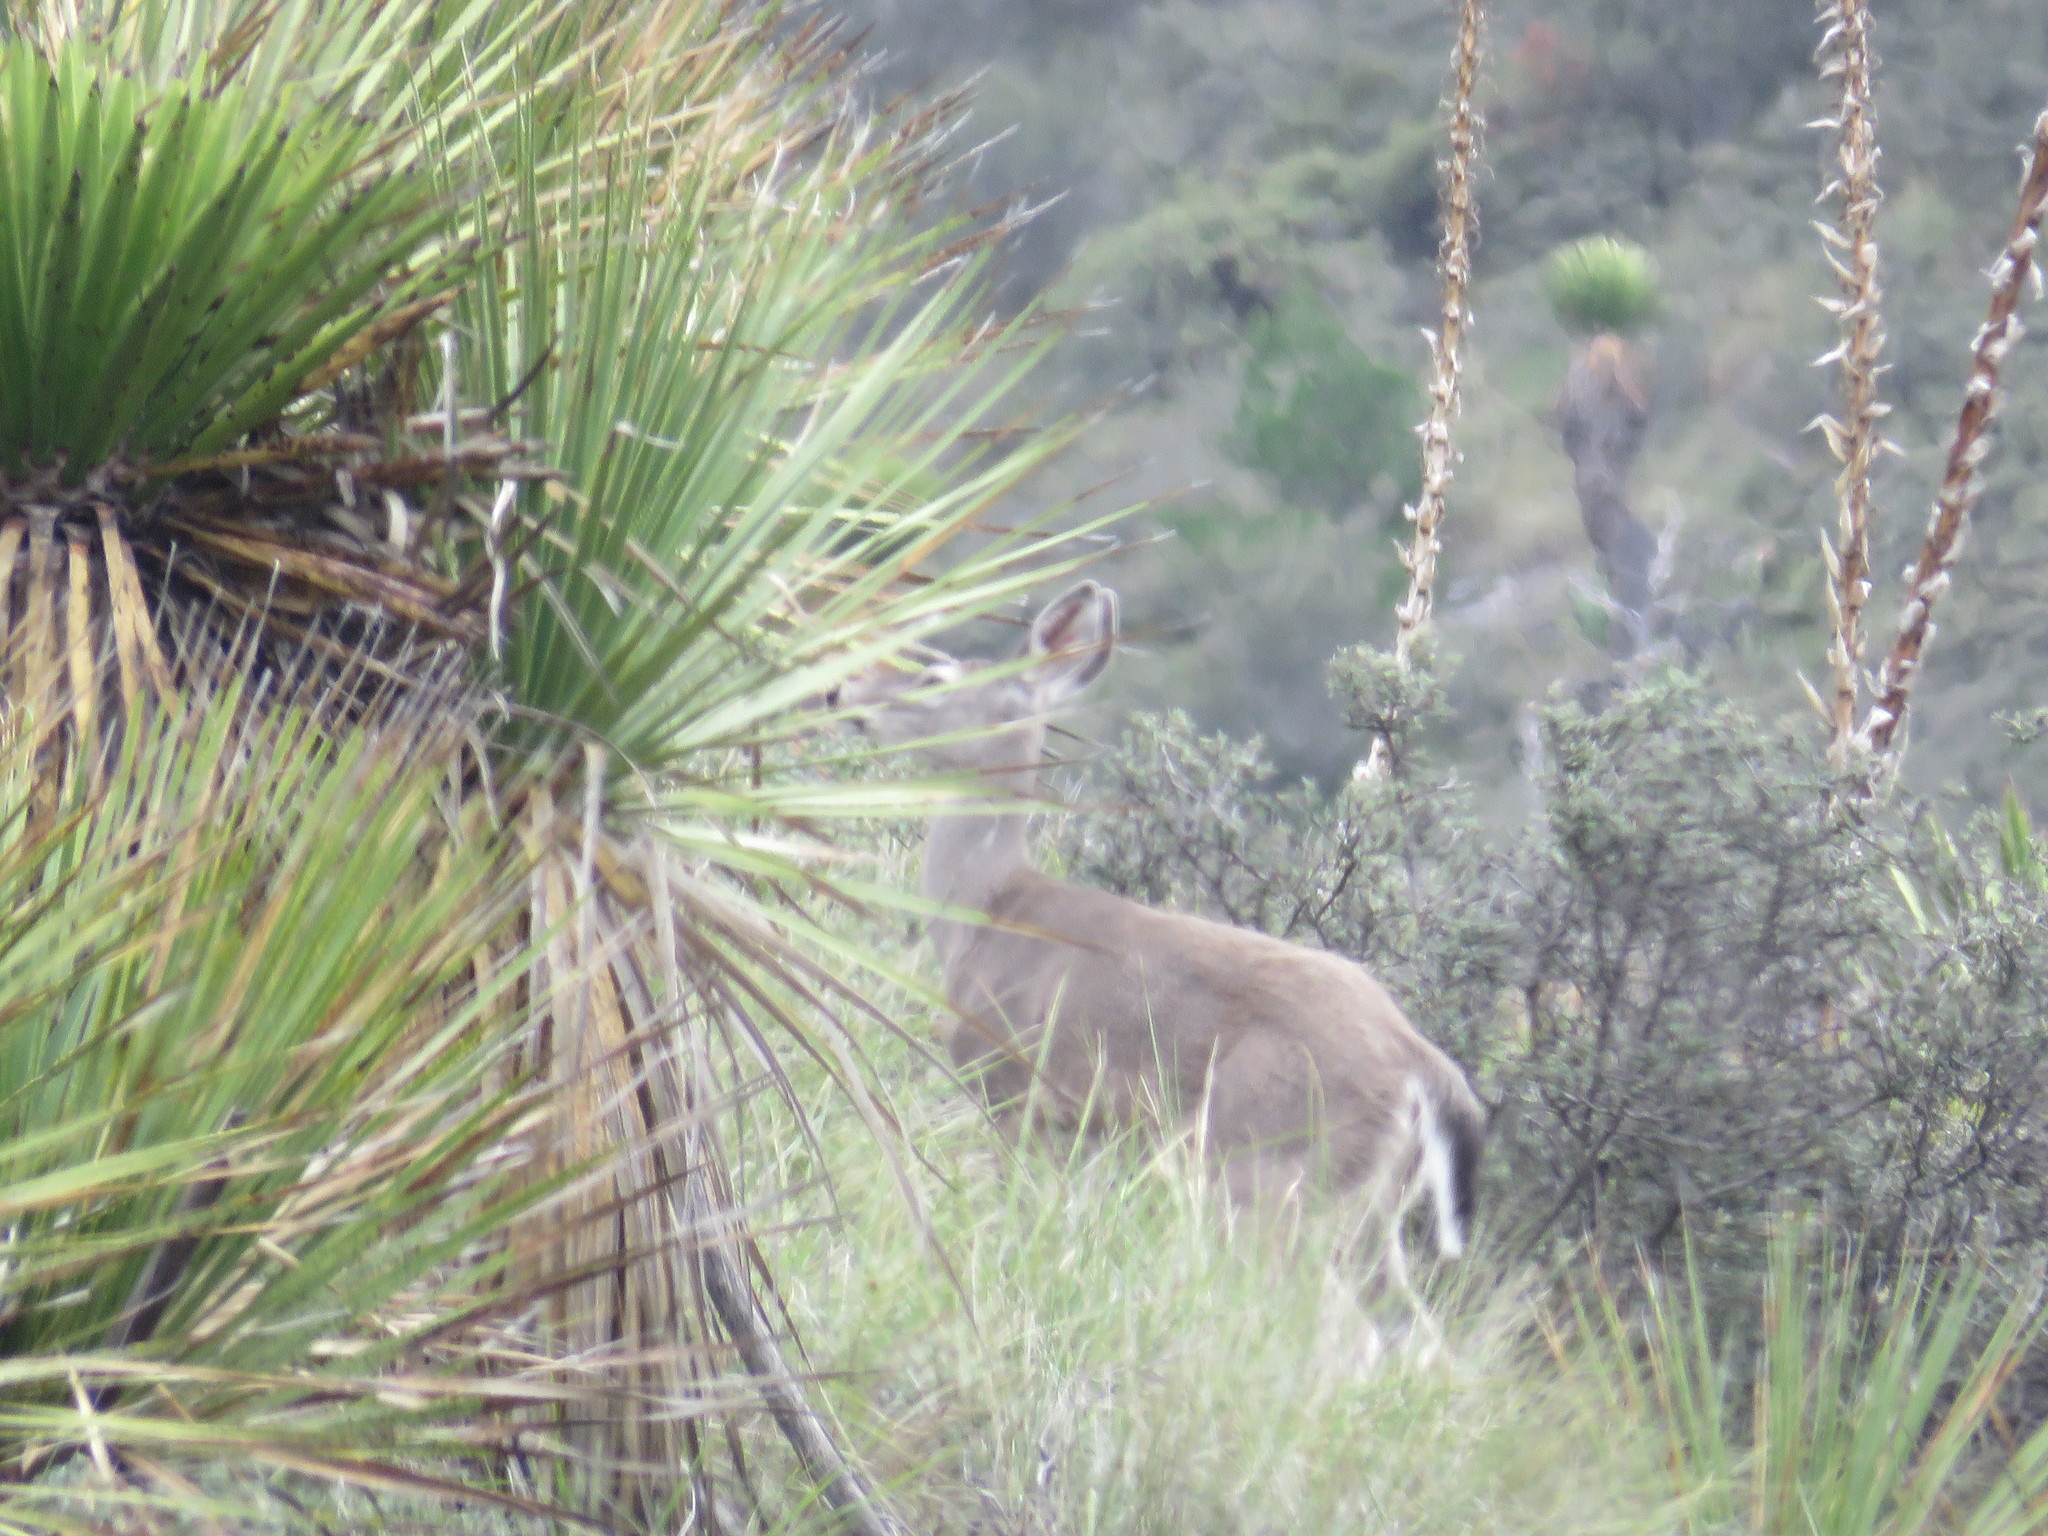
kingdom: Animalia
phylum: Chordata
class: Mammalia
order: Artiodactyla
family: Cervidae
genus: Odocoileus
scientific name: Odocoileus virginianus
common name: White-tailed deer
